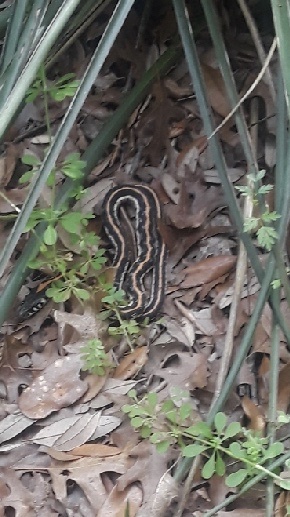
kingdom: Animalia
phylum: Chordata
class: Squamata
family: Colubridae
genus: Thamnophis
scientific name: Thamnophis cyrtopsis
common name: Black-necked gartersnake
